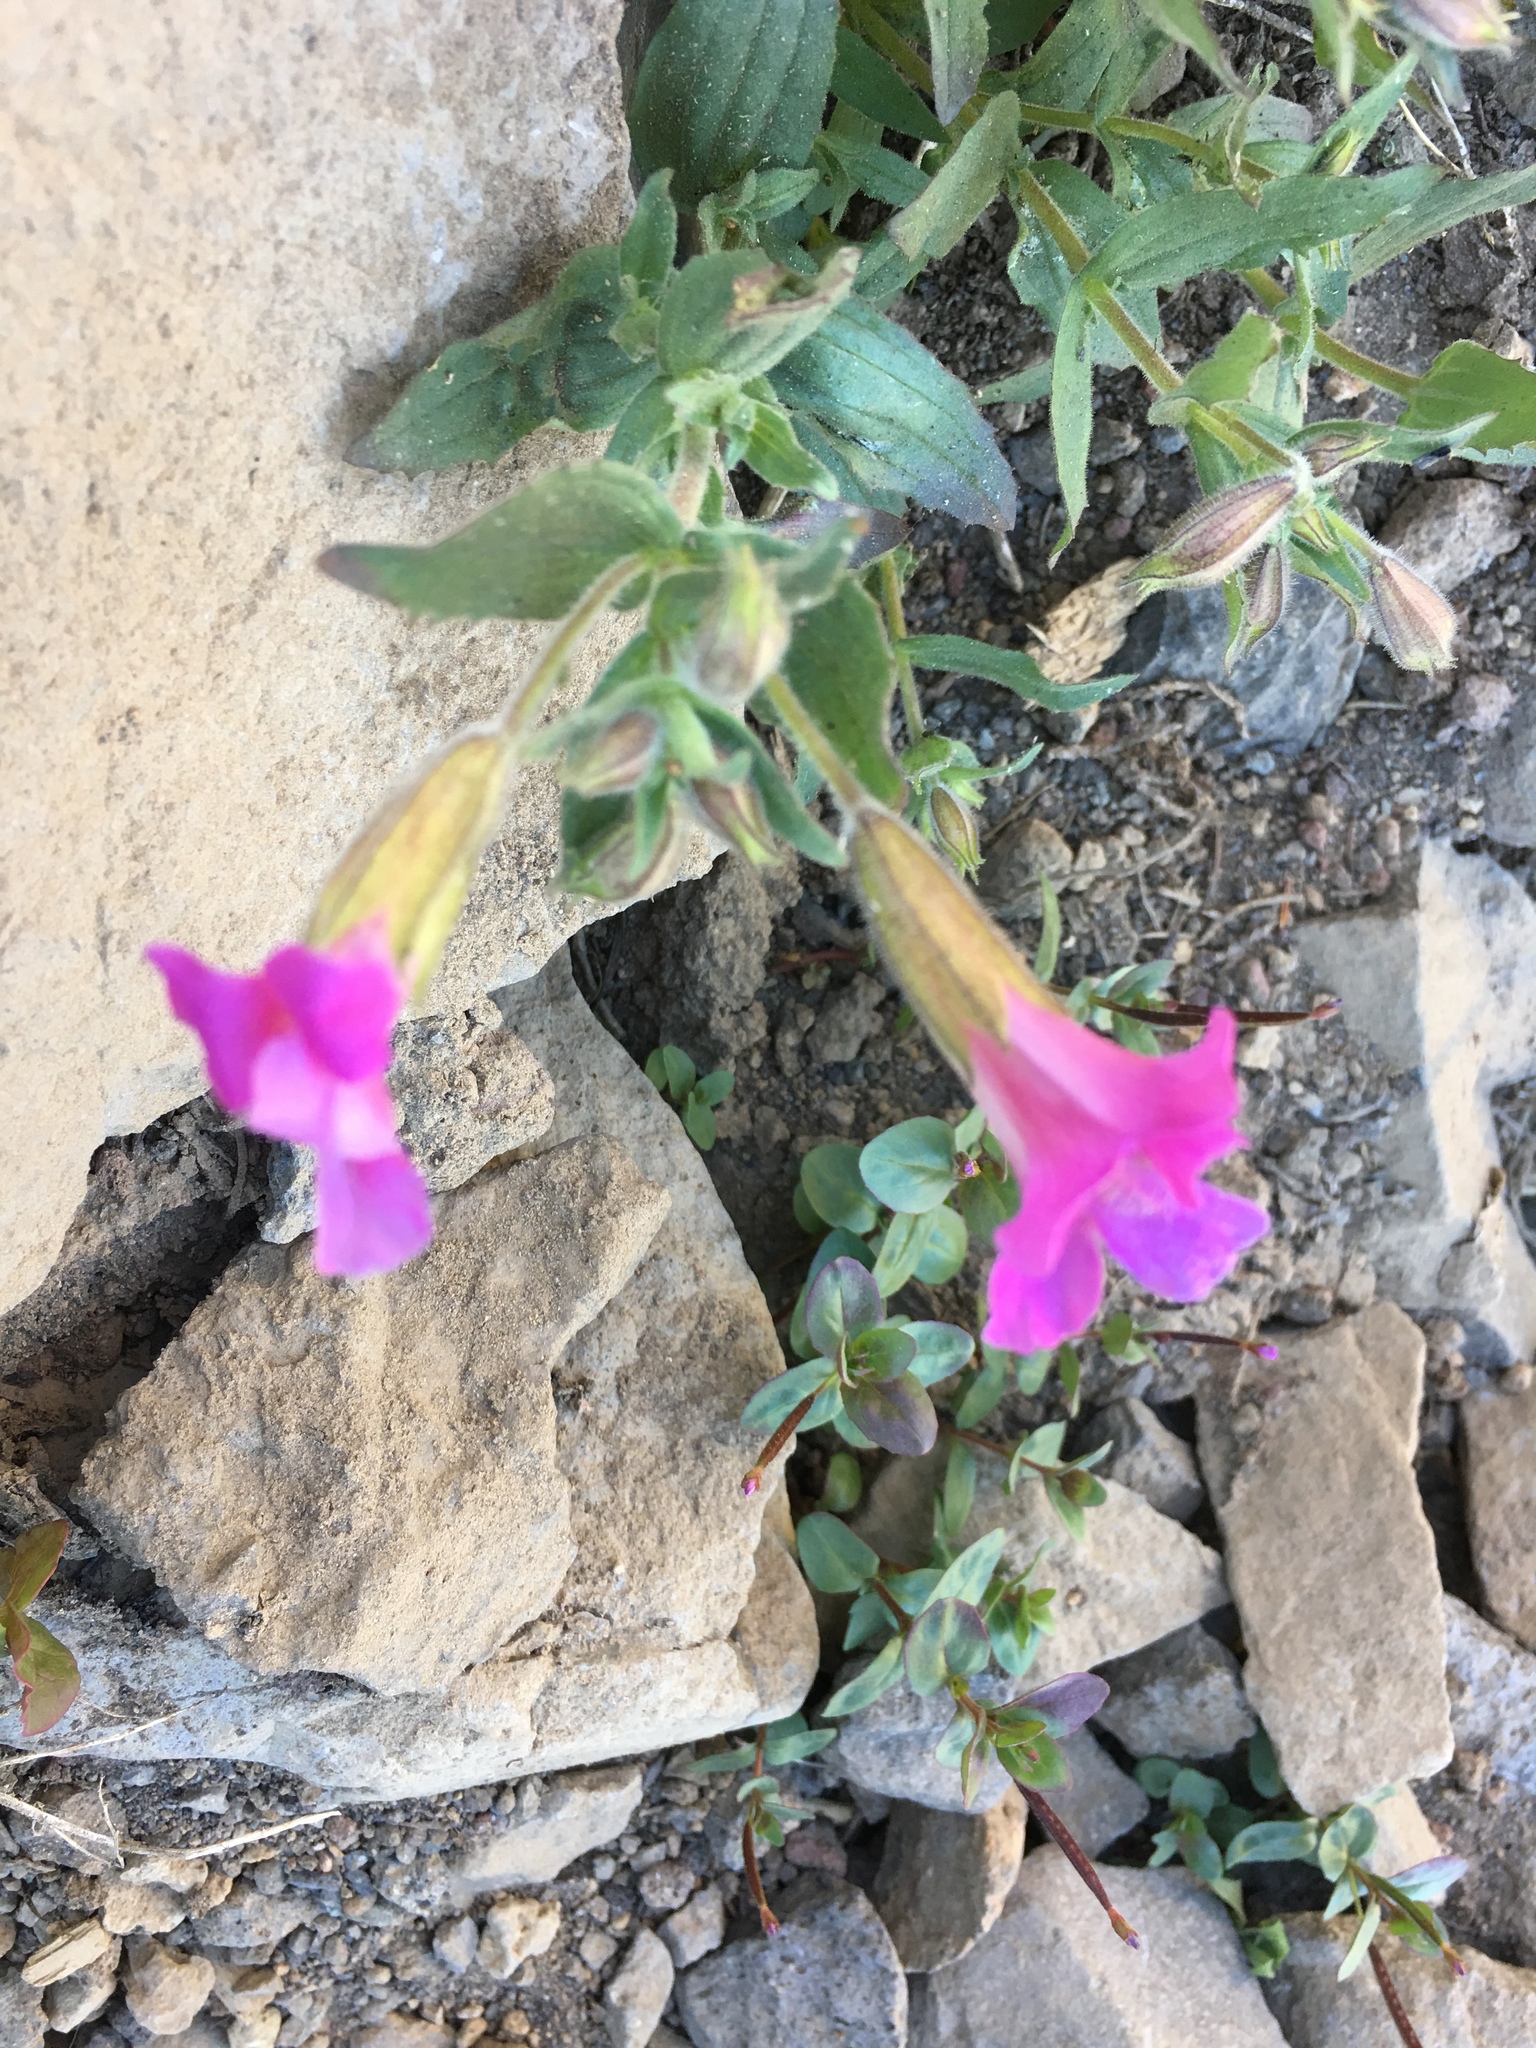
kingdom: Plantae
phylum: Tracheophyta
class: Magnoliopsida
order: Lamiales
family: Phrymaceae
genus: Erythranthe
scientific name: Erythranthe lewisii
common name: Lewis's monkey-flower
